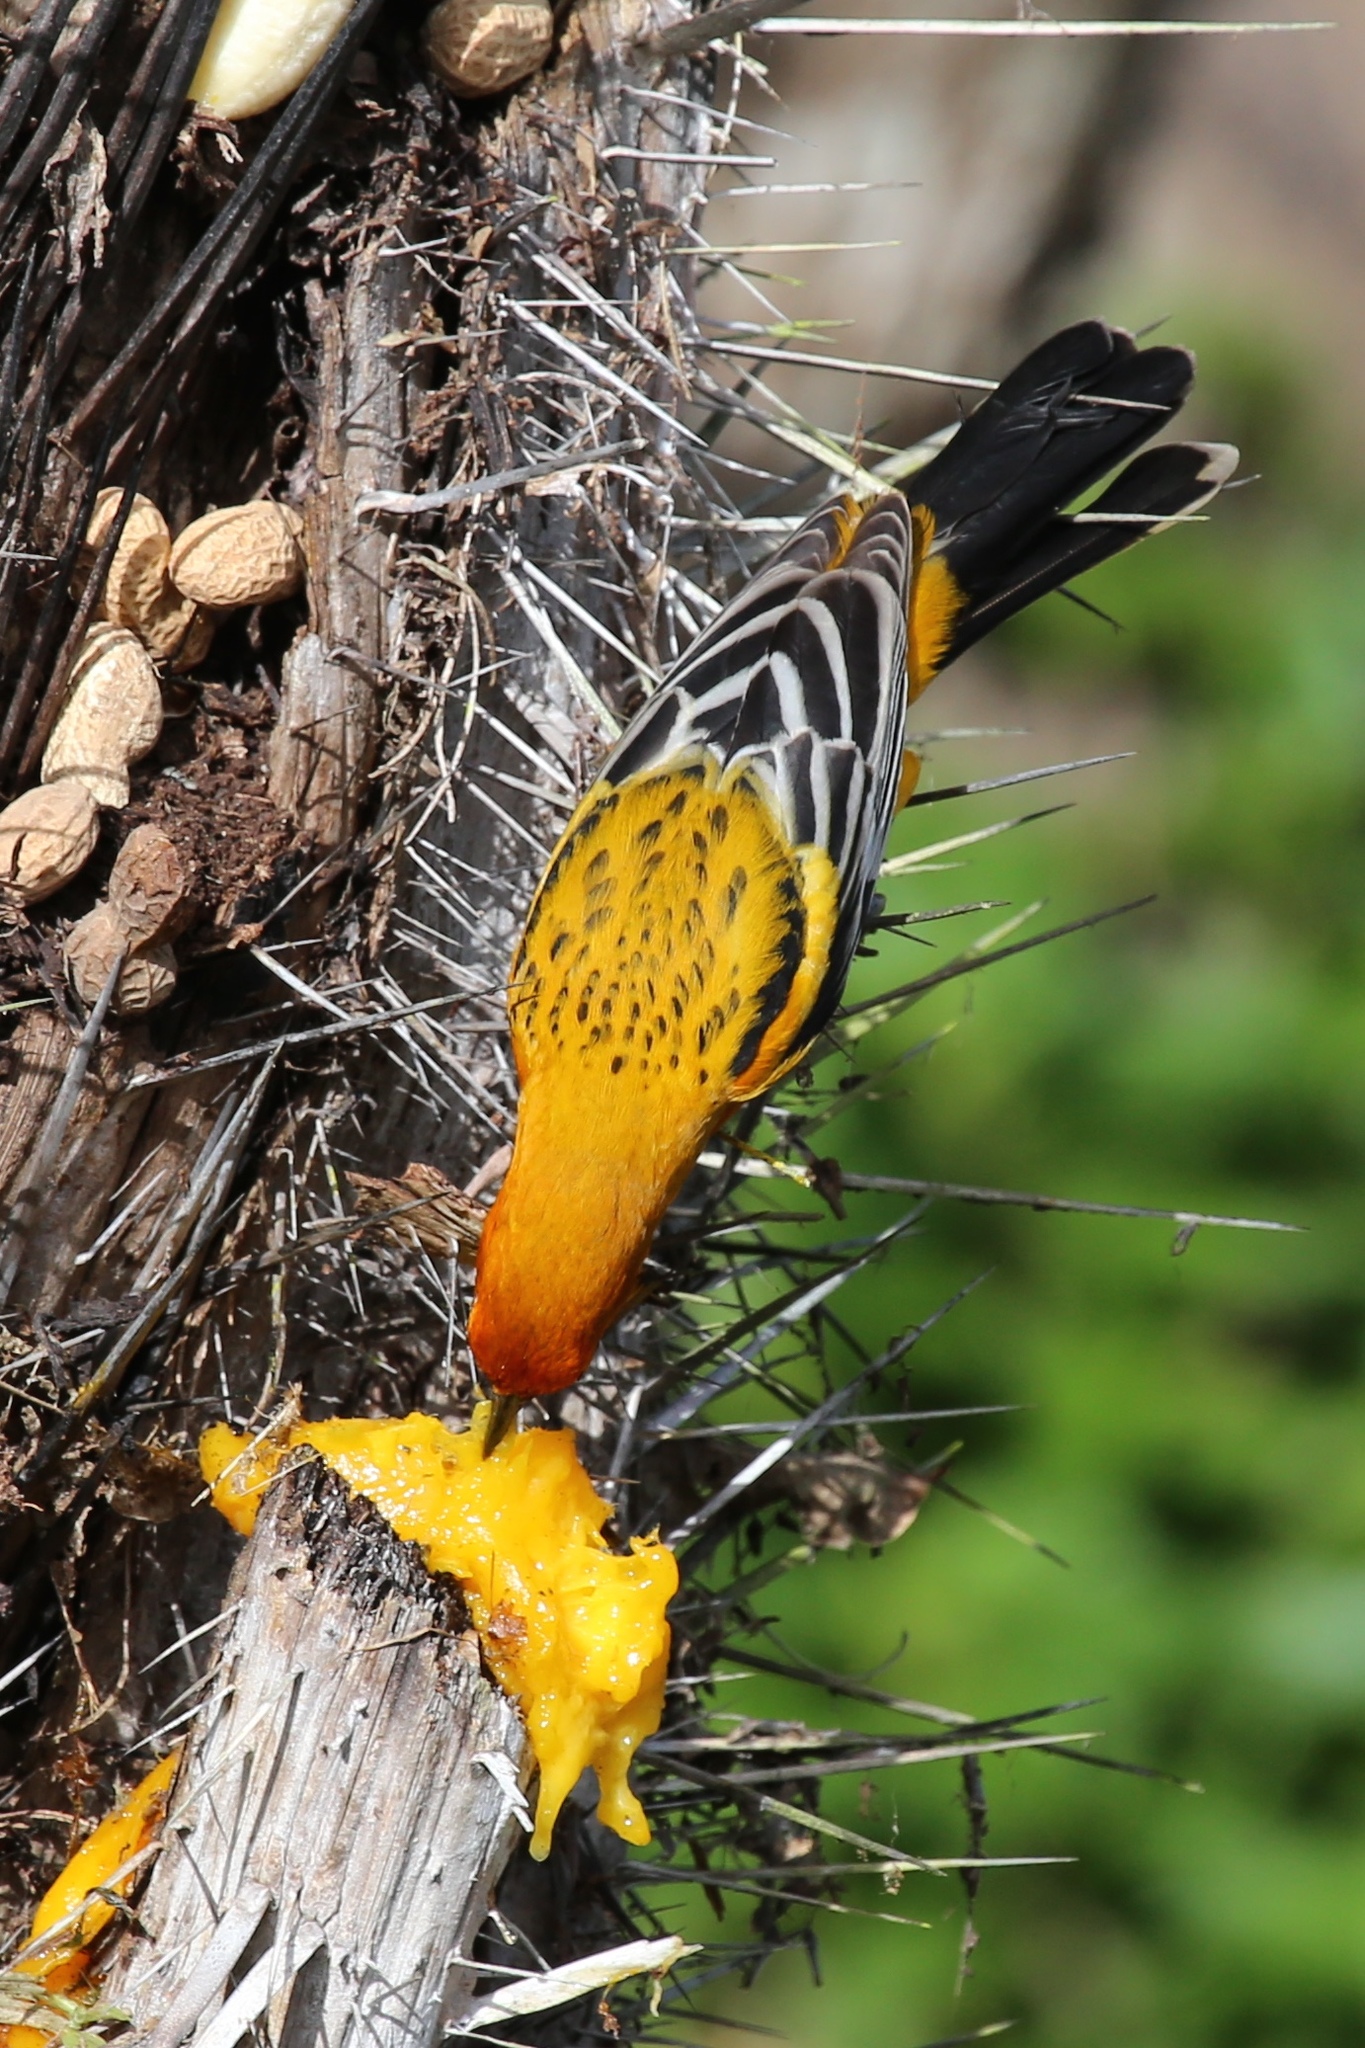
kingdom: Animalia
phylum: Chordata
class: Aves
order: Passeriformes
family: Icteridae
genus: Icterus
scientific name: Icterus pustulatus
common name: Streak-backed oriole
